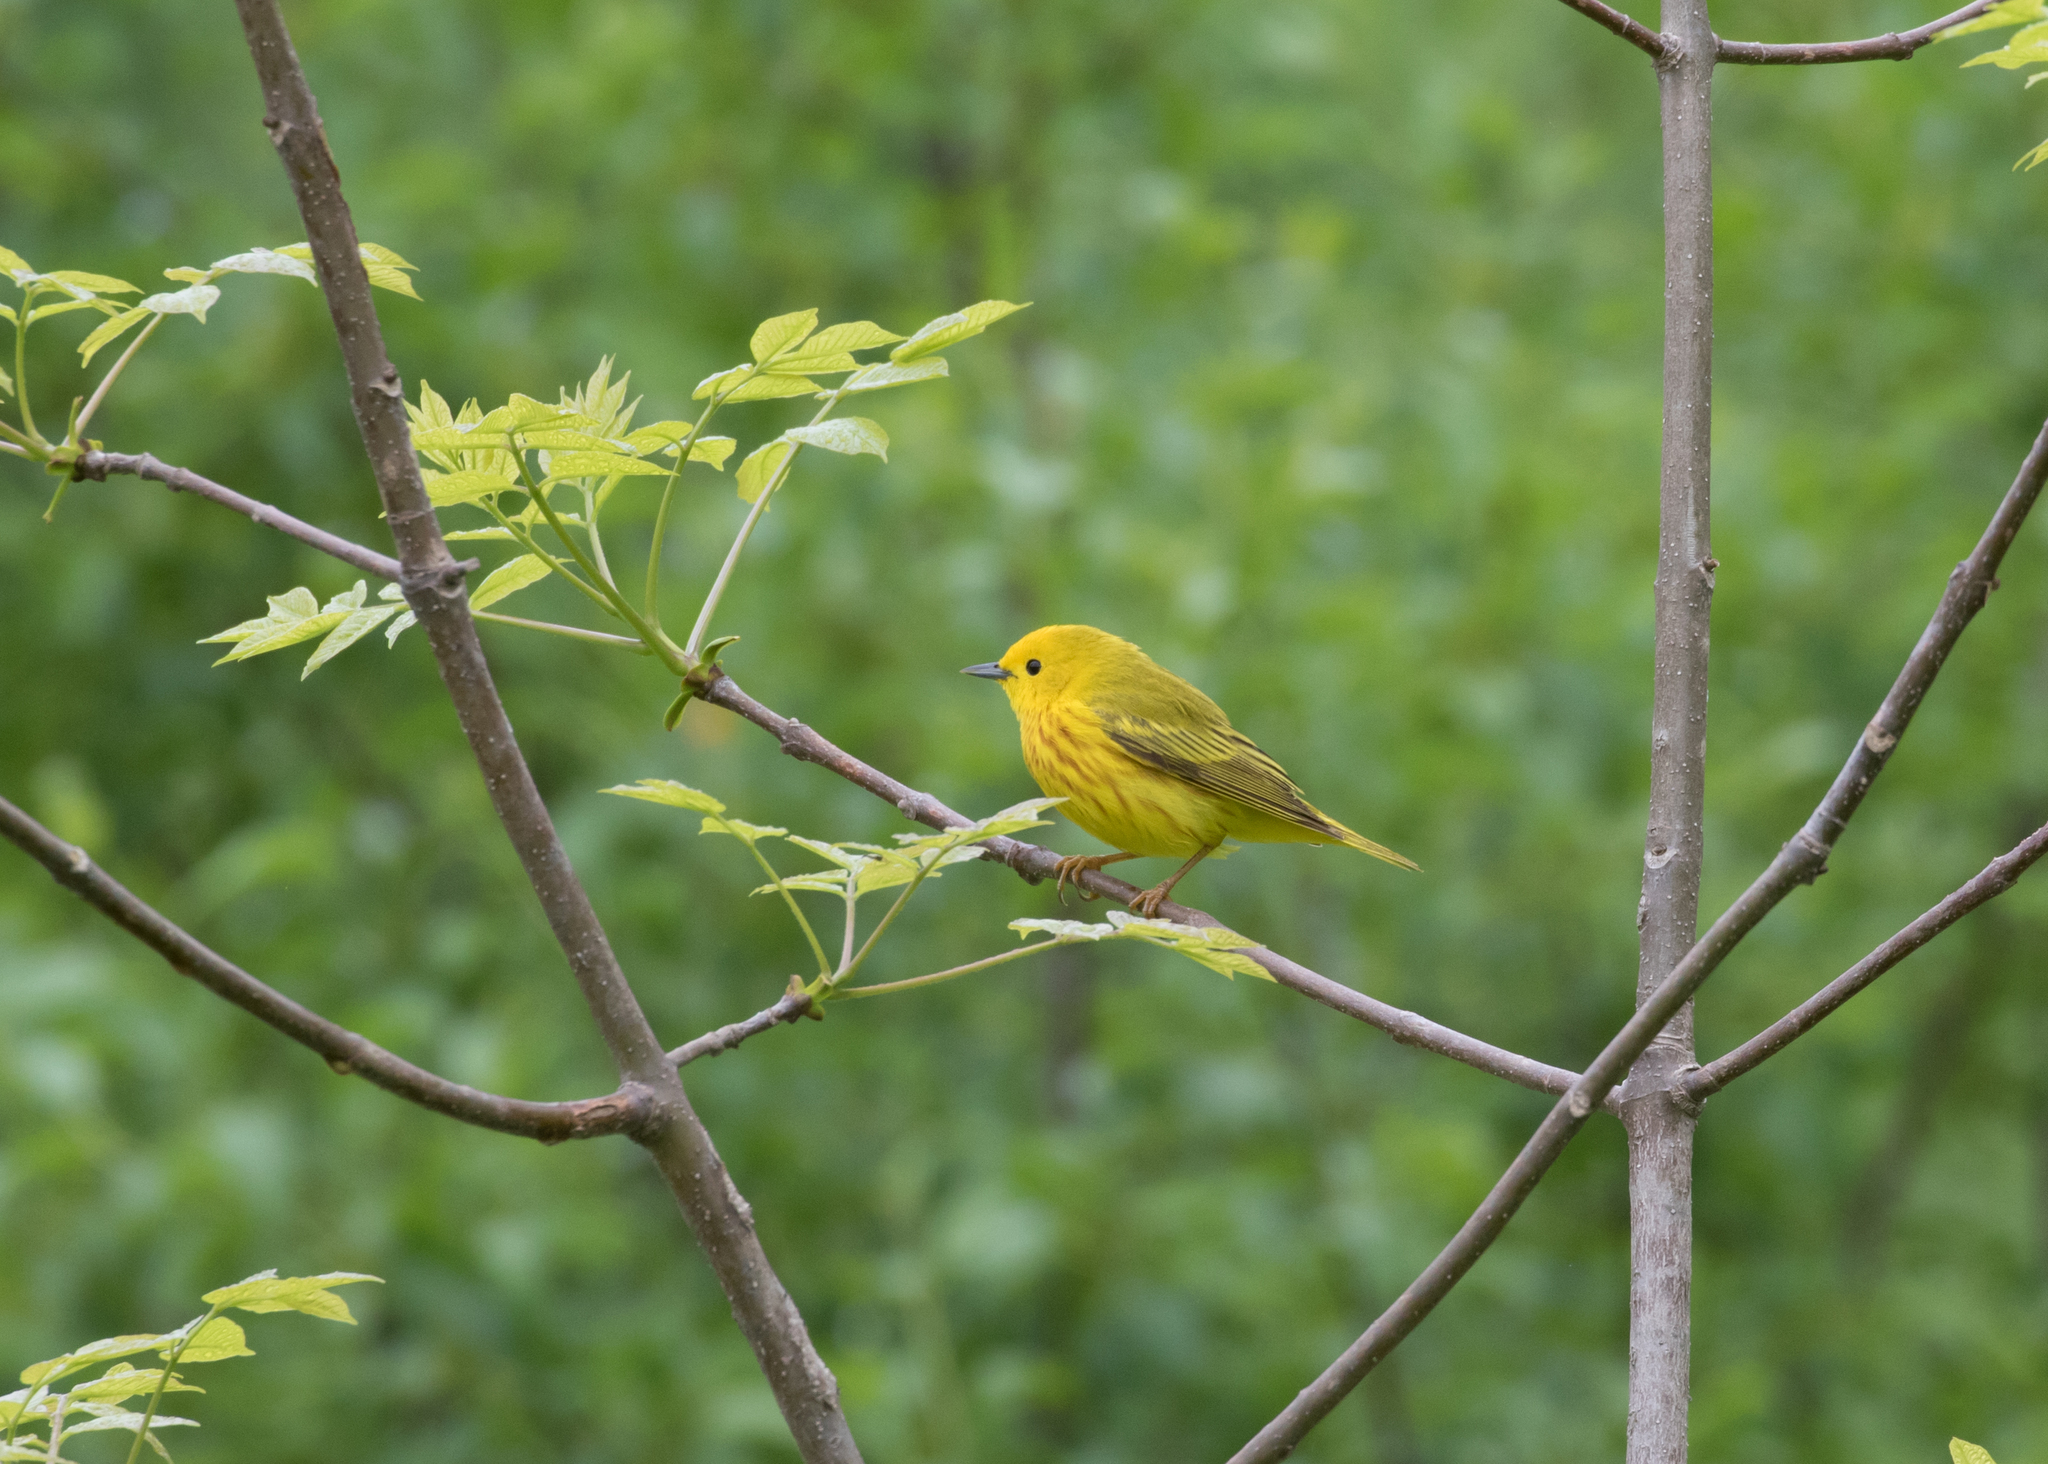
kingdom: Animalia
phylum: Chordata
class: Aves
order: Passeriformes
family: Parulidae
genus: Setophaga
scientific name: Setophaga petechia
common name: Yellow warbler
